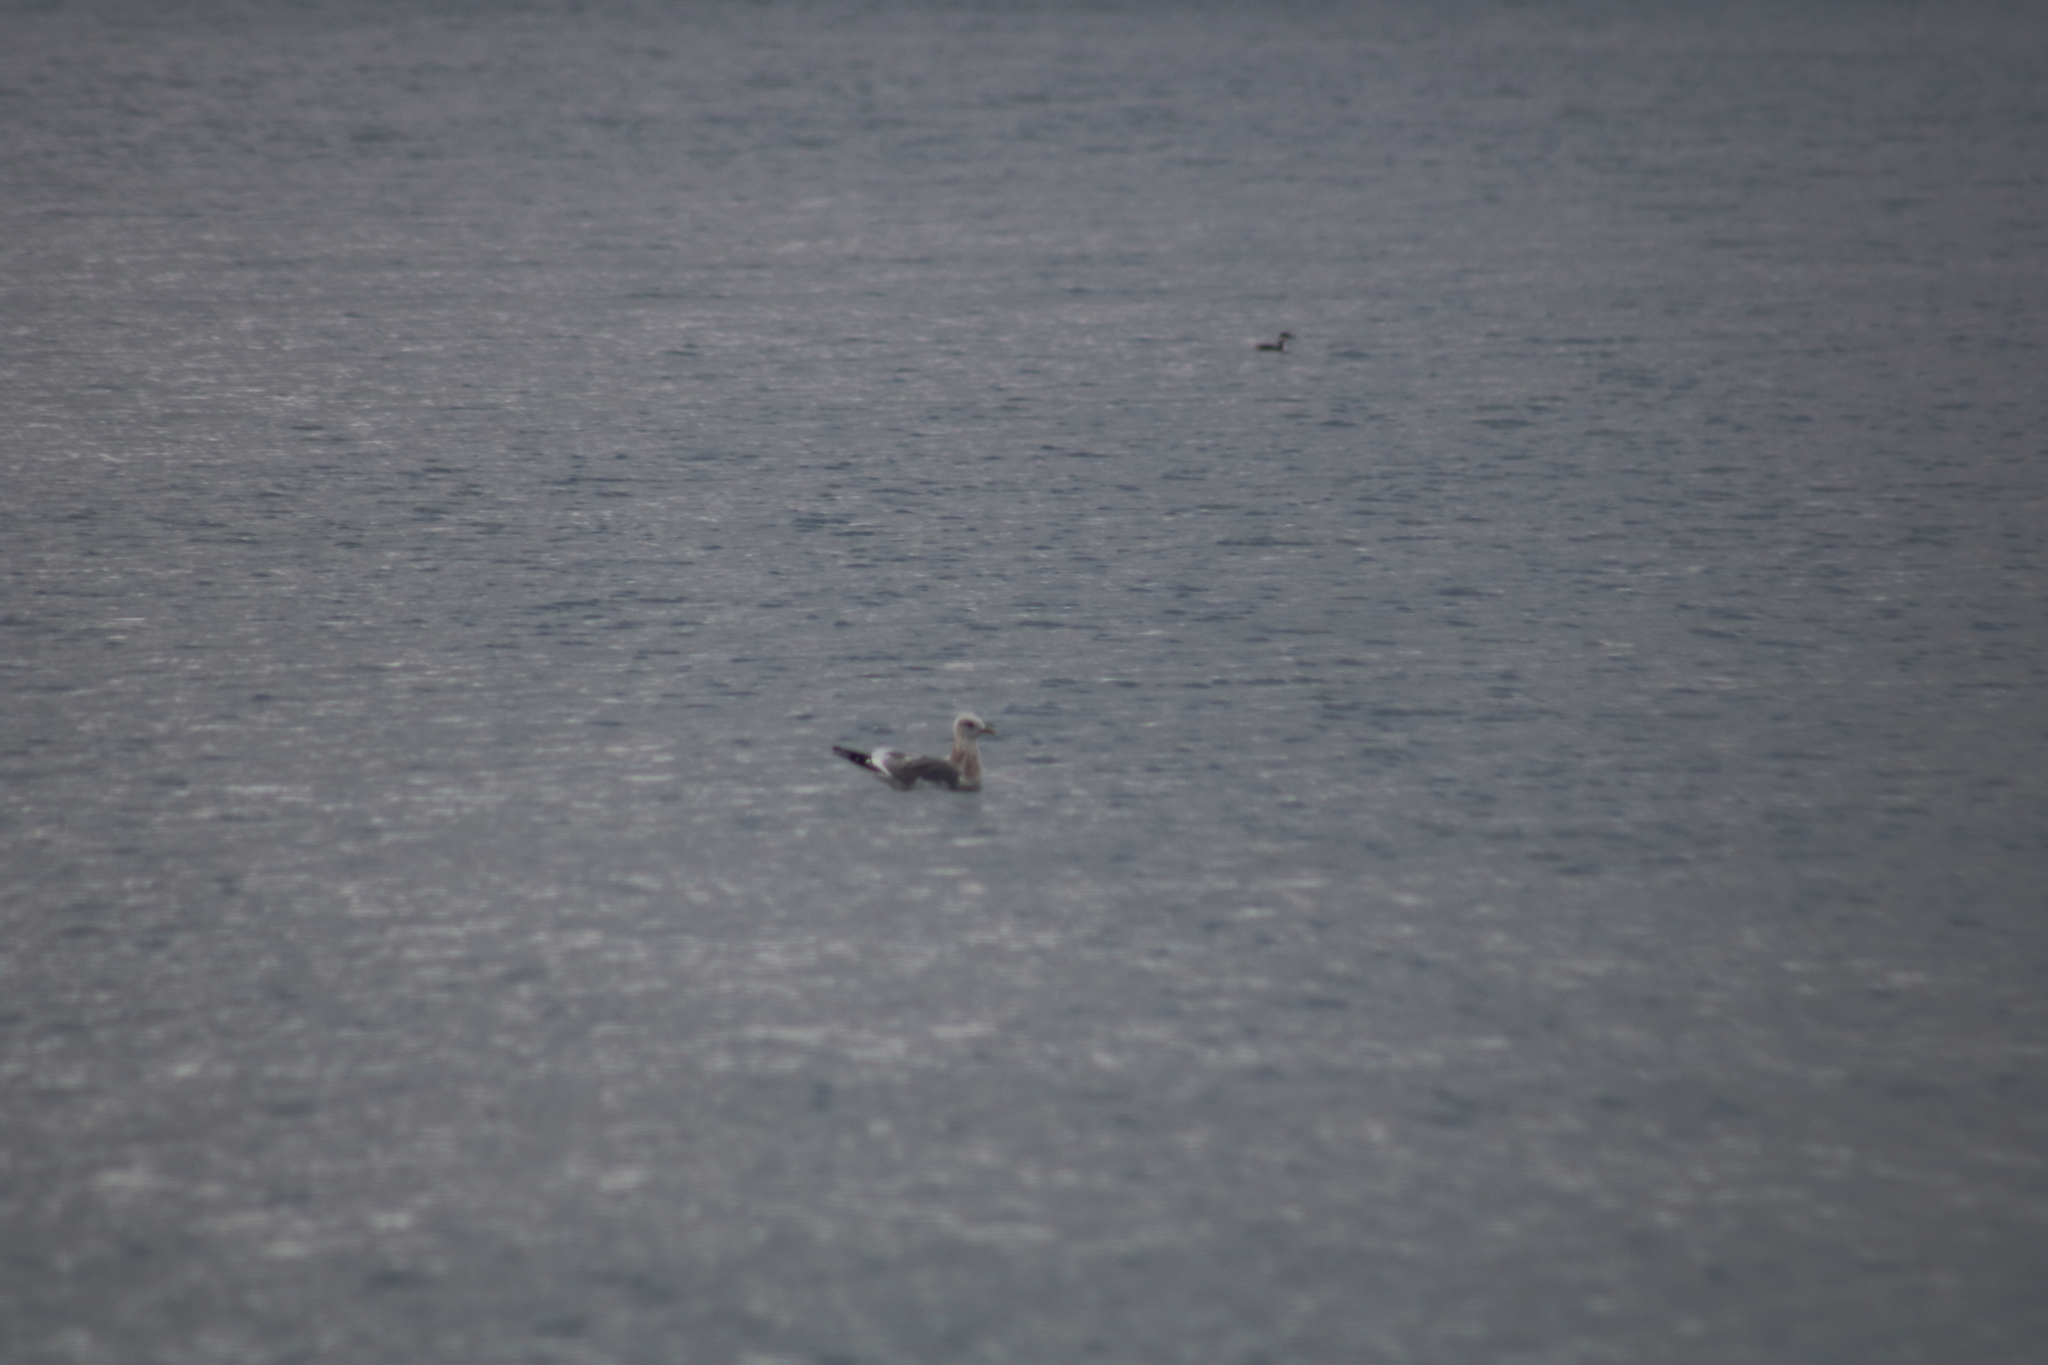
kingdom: Animalia
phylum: Chordata
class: Aves
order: Charadriiformes
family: Laridae
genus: Larus
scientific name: Larus brachyrhynchus
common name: Short-billed gull
